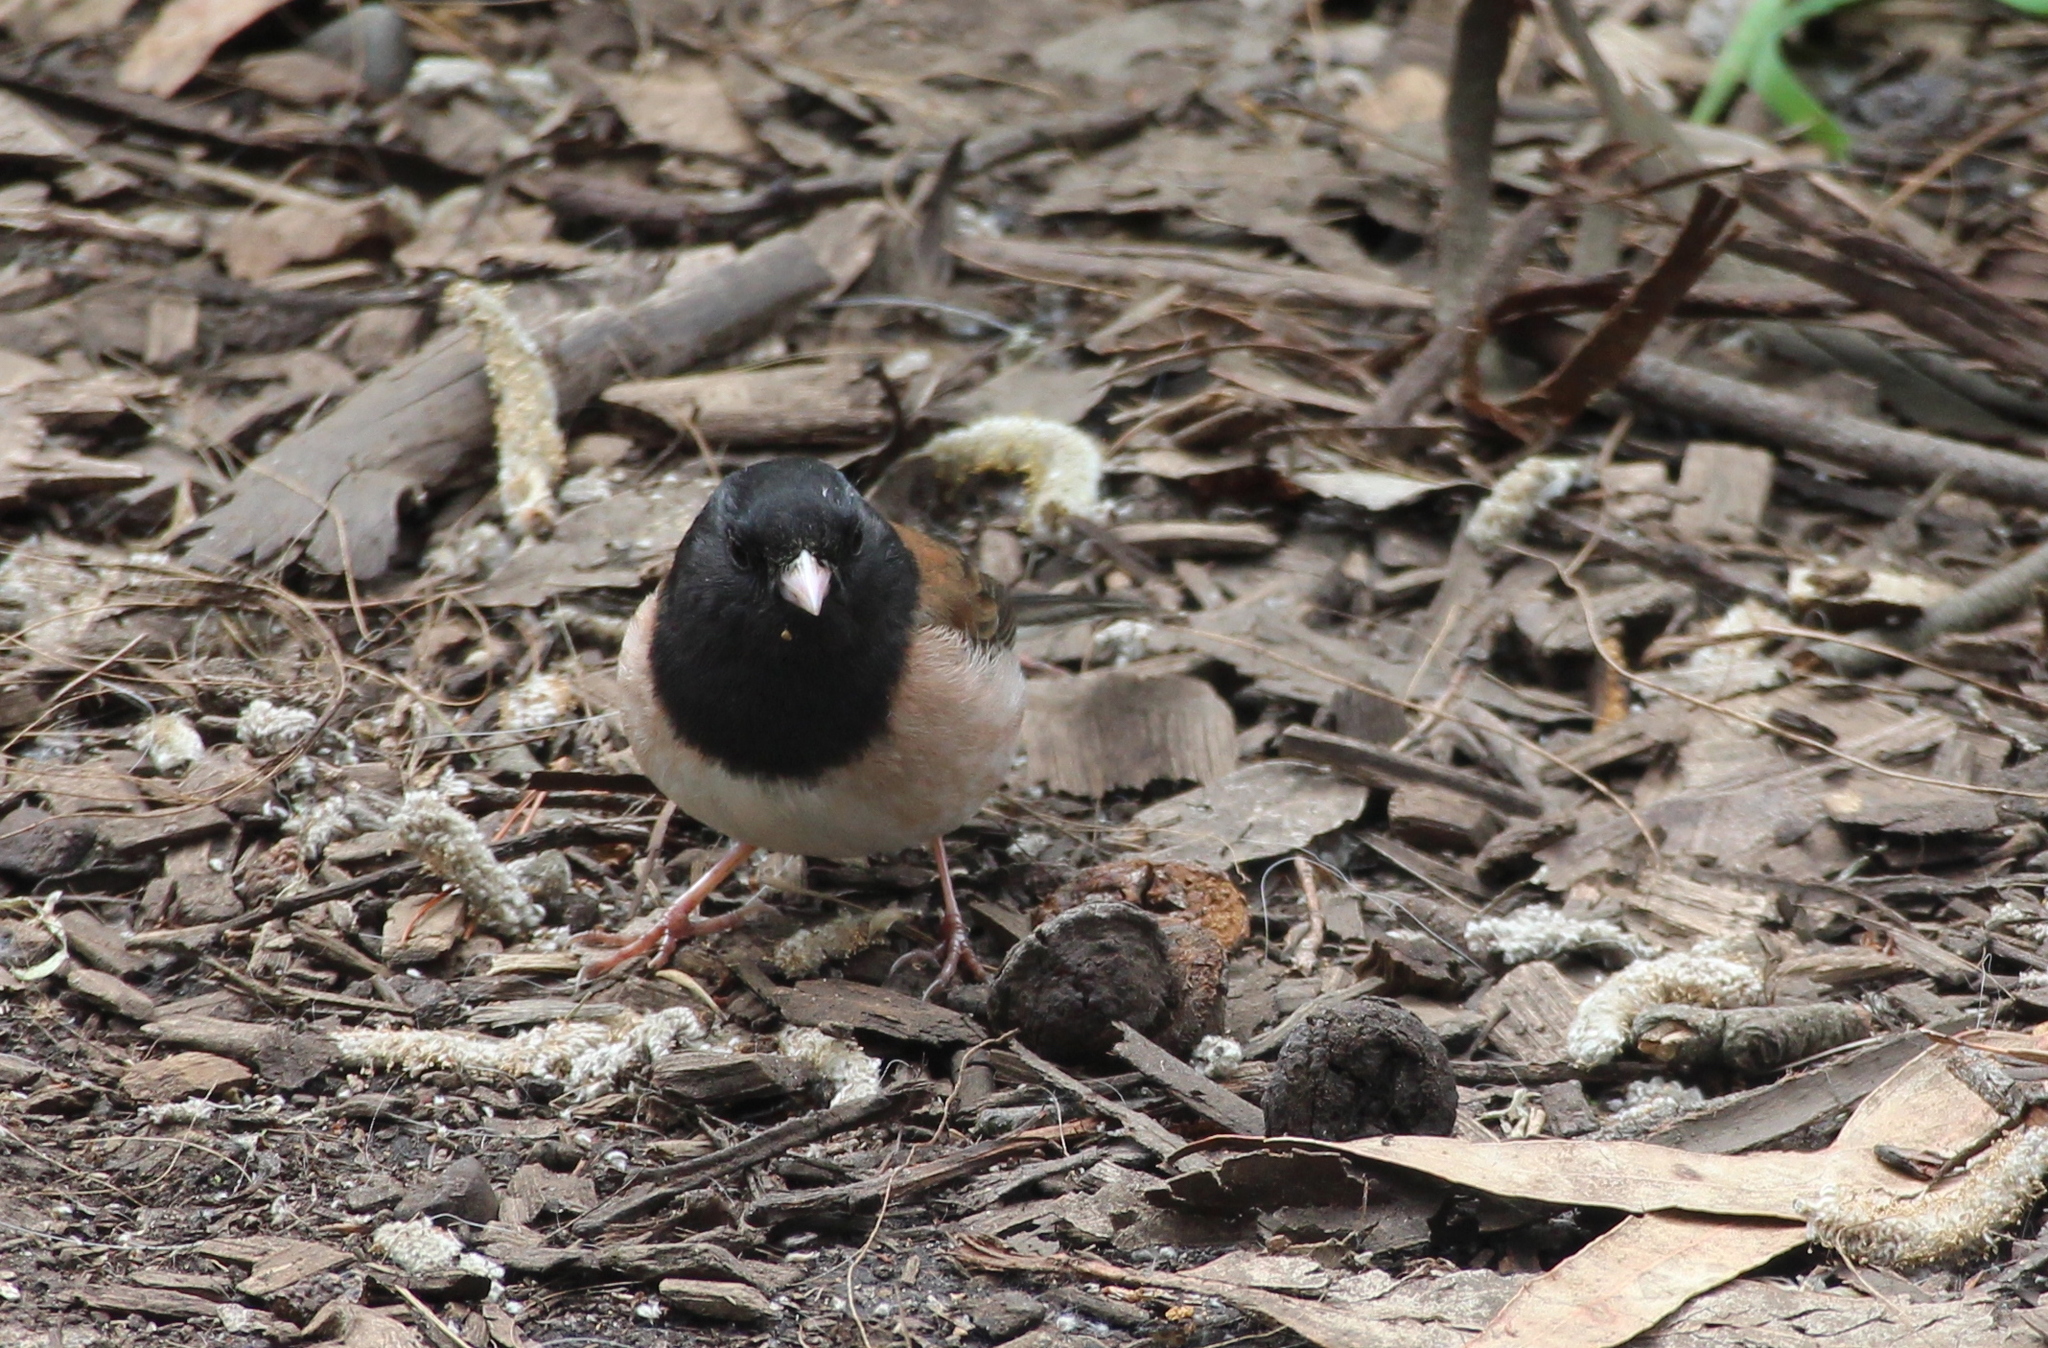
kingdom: Animalia
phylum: Chordata
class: Aves
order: Passeriformes
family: Passerellidae
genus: Junco
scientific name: Junco hyemalis
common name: Dark-eyed junco
